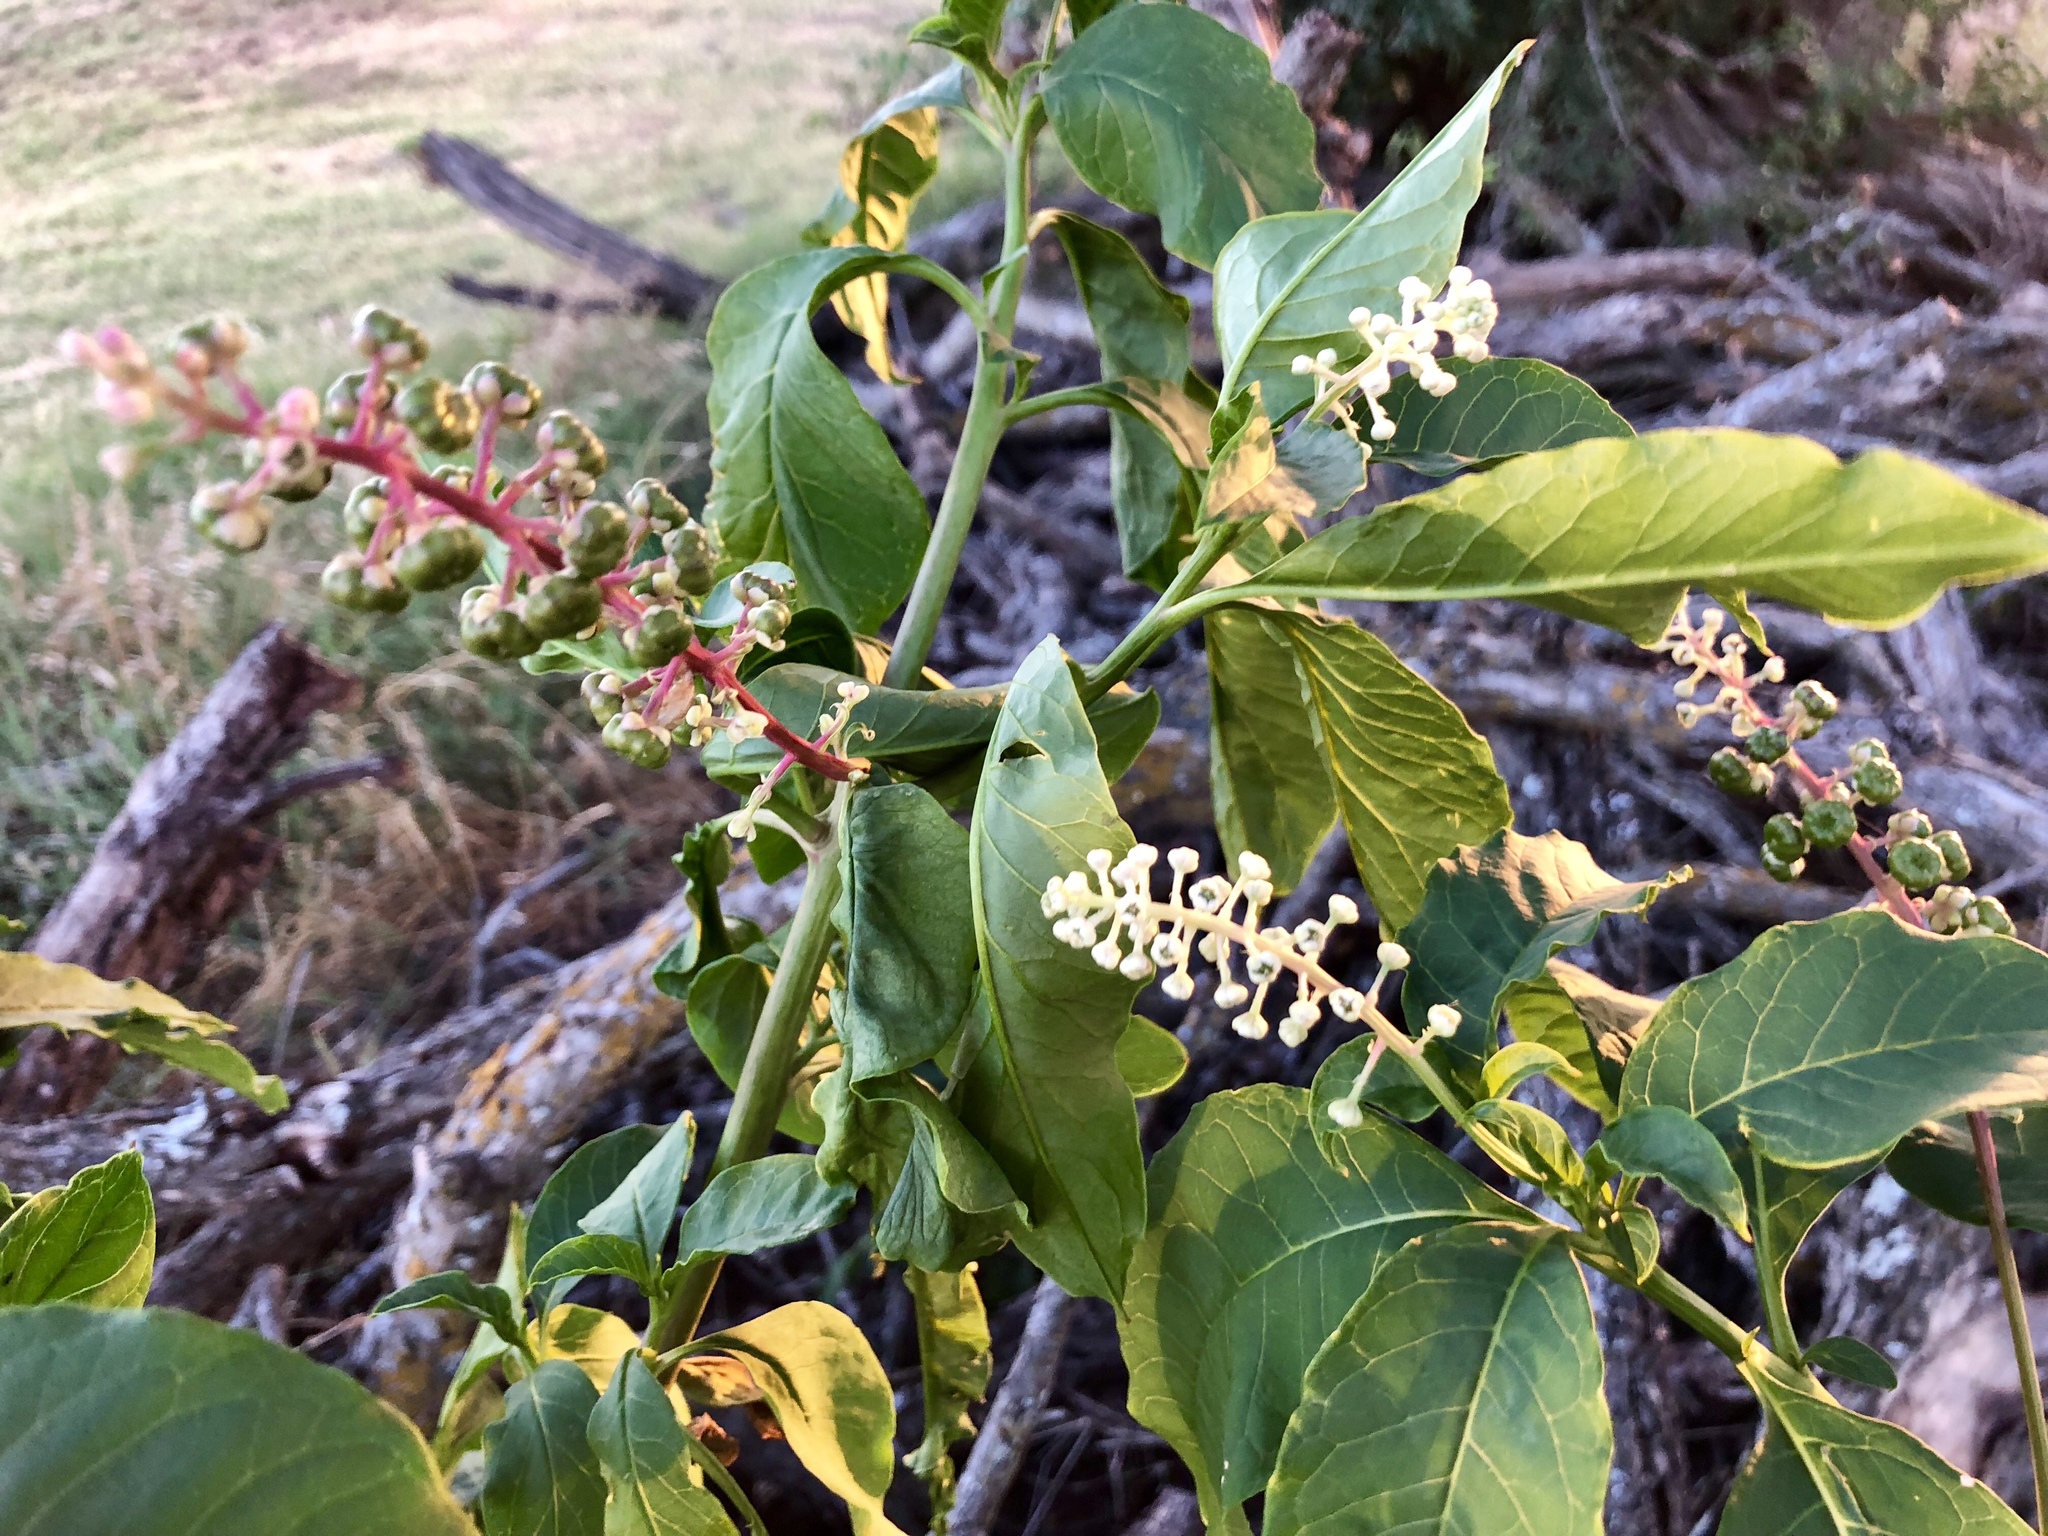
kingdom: Plantae
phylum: Tracheophyta
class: Magnoliopsida
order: Caryophyllales
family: Phytolaccaceae
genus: Phytolacca
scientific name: Phytolacca americana
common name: American pokeweed
